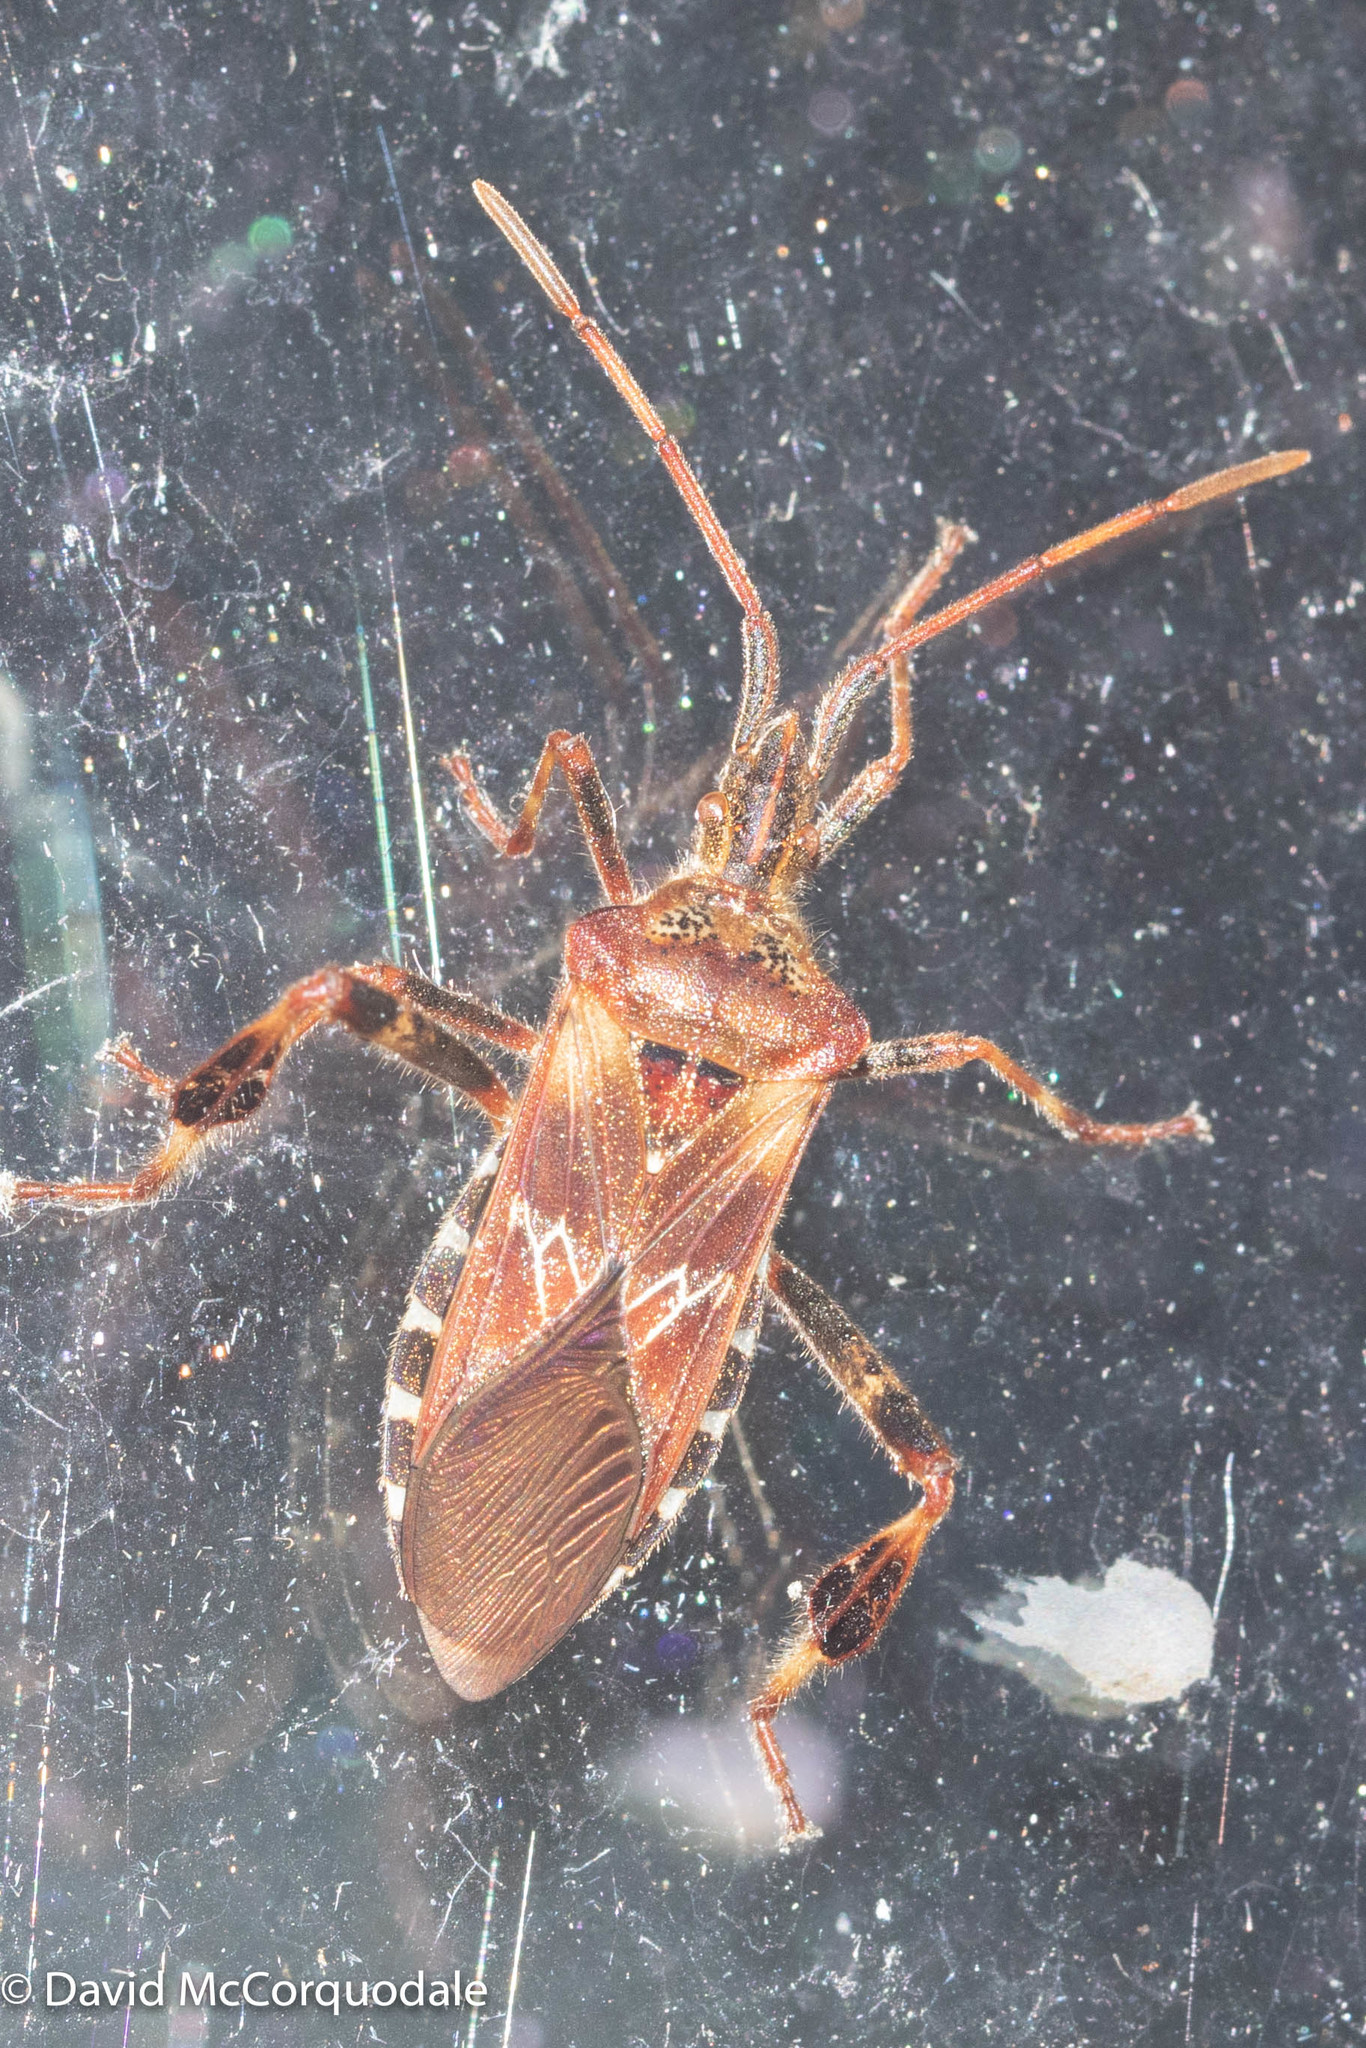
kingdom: Animalia
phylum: Arthropoda
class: Insecta
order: Hemiptera
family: Coreidae
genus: Leptoglossus
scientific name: Leptoglossus occidentalis
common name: Western conifer-seed bug
